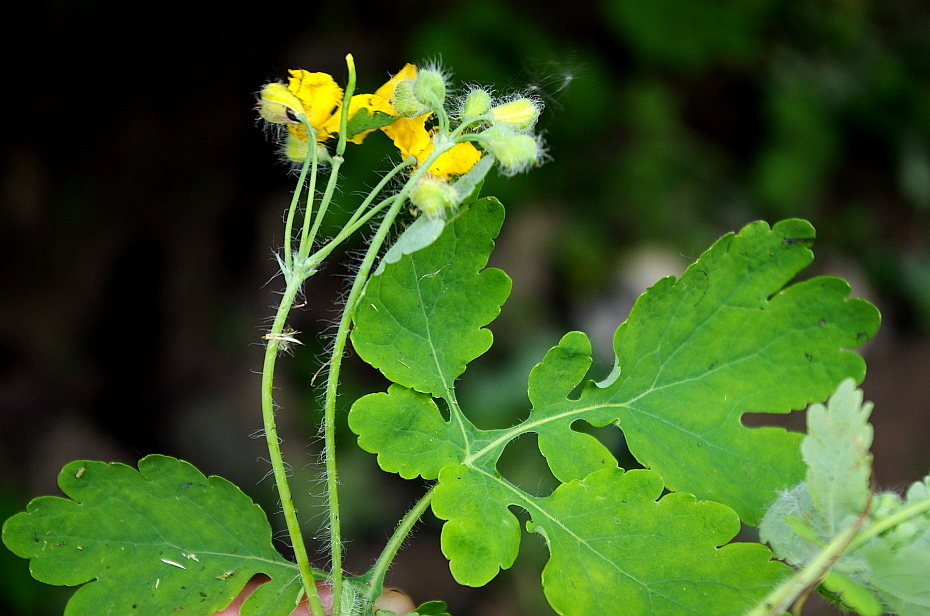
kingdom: Plantae
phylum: Tracheophyta
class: Magnoliopsida
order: Ranunculales
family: Papaveraceae
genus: Chelidonium
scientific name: Chelidonium majus
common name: Greater celandine
